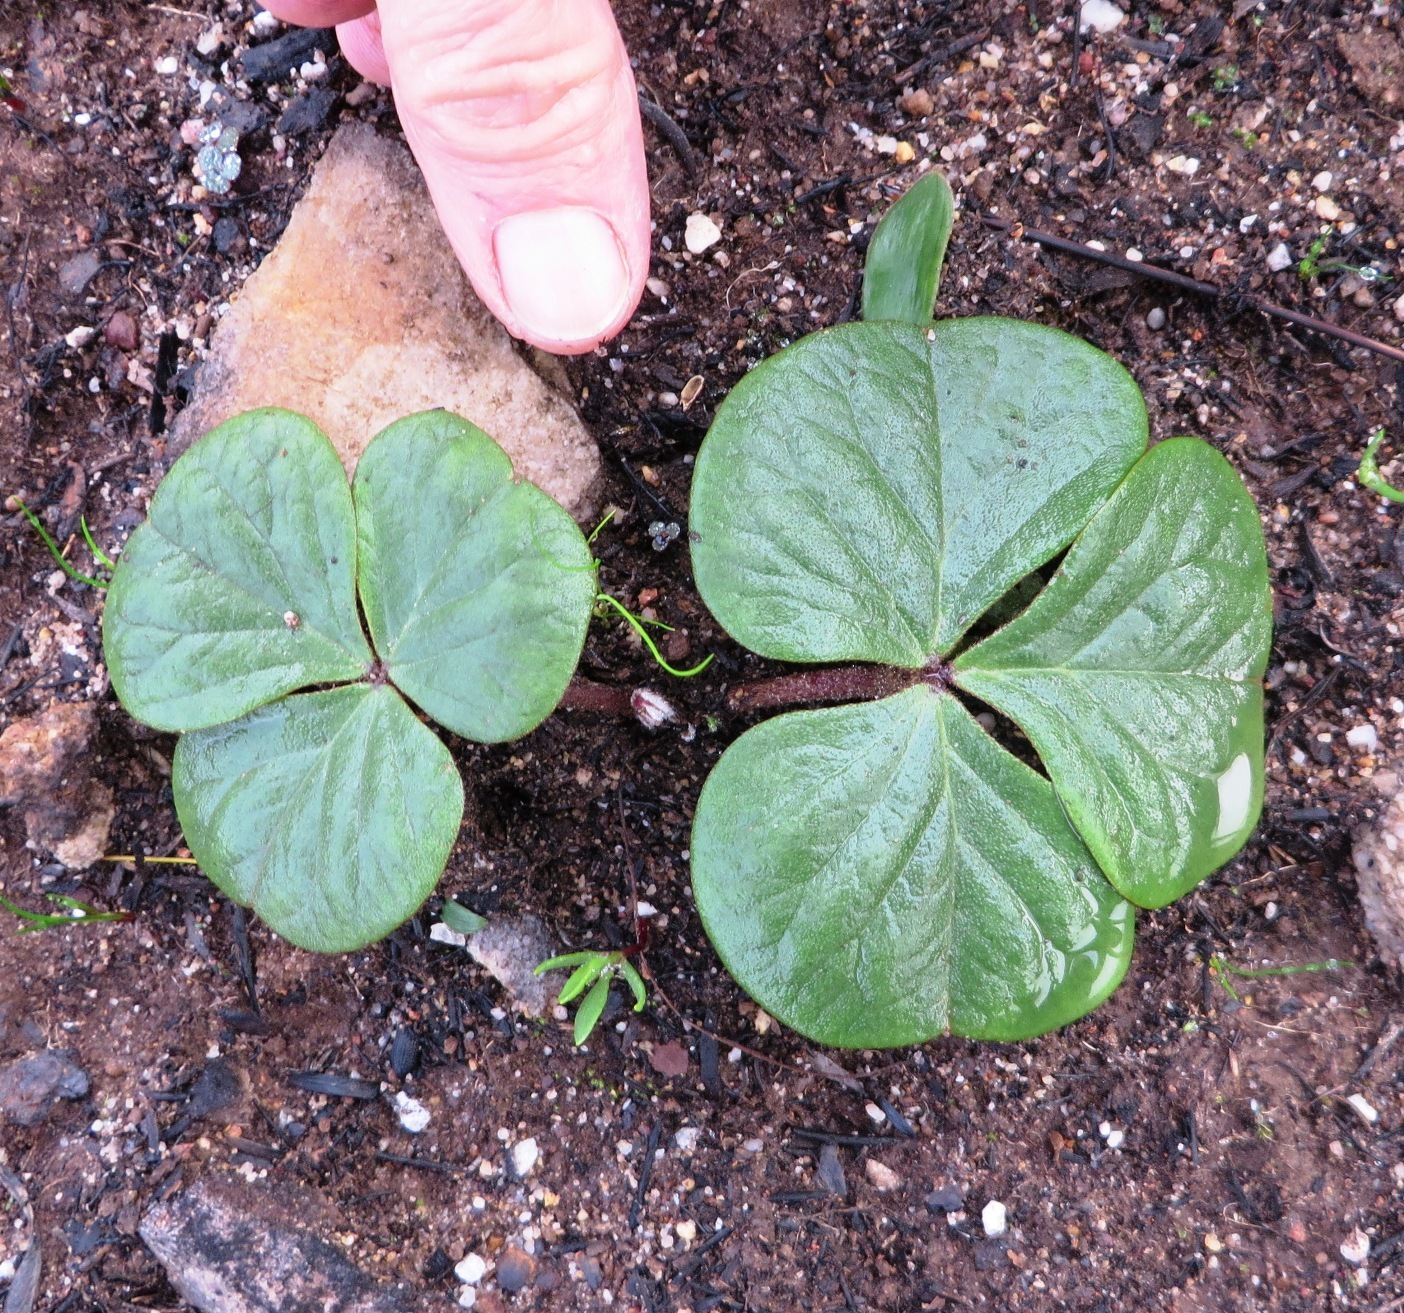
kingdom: Plantae
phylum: Tracheophyta
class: Magnoliopsida
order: Oxalidales
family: Oxalidaceae
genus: Oxalis
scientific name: Oxalis truncatula
